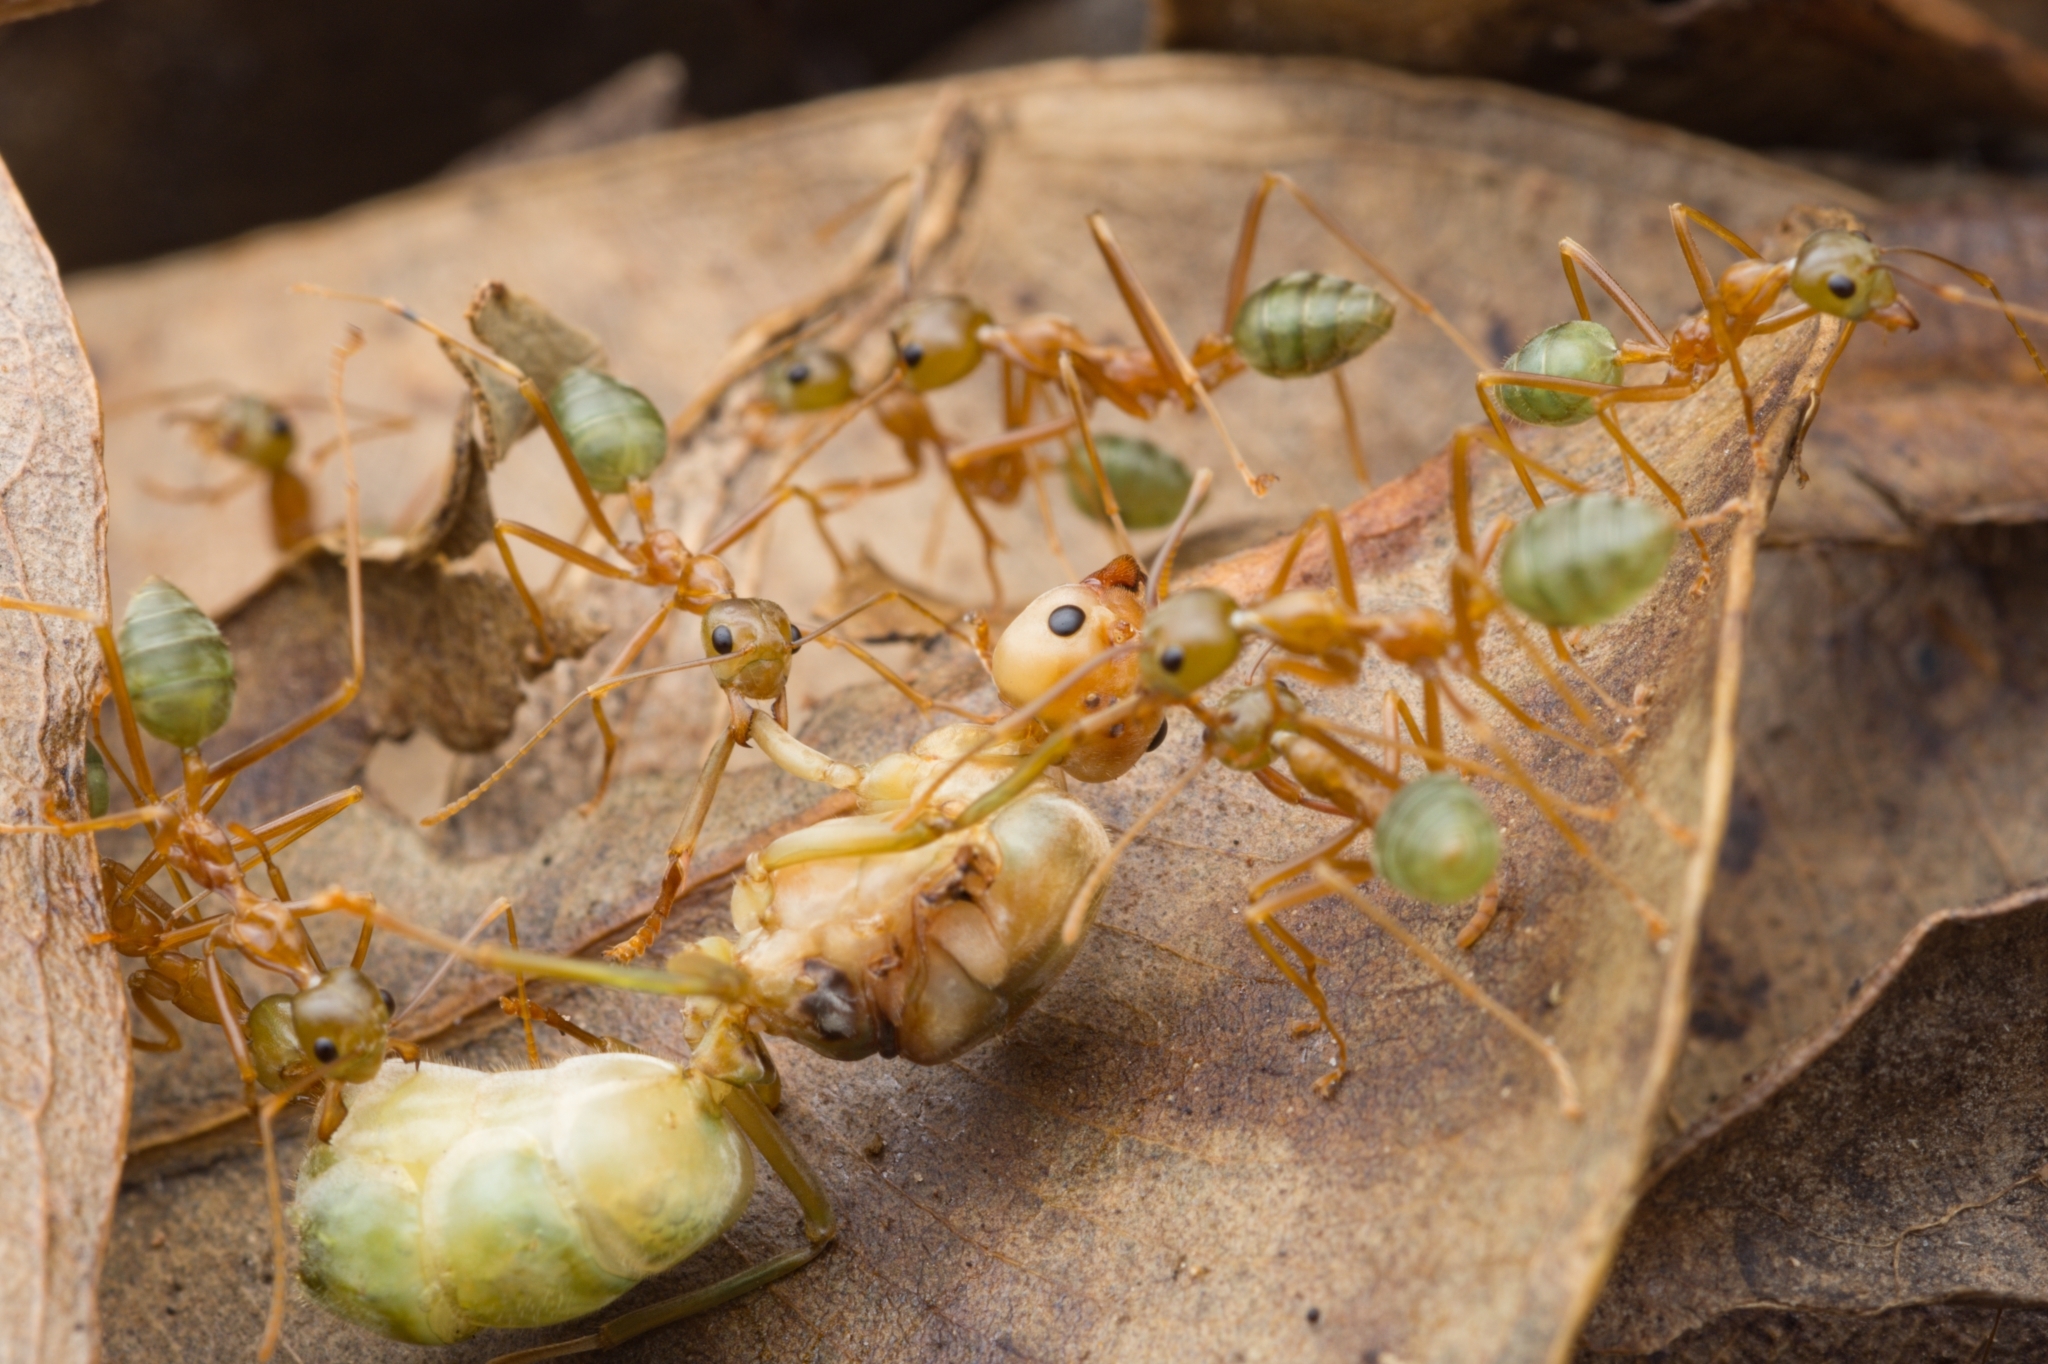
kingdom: Animalia
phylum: Arthropoda
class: Insecta
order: Hymenoptera
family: Formicidae
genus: Oecophylla
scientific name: Oecophylla smaragdina
